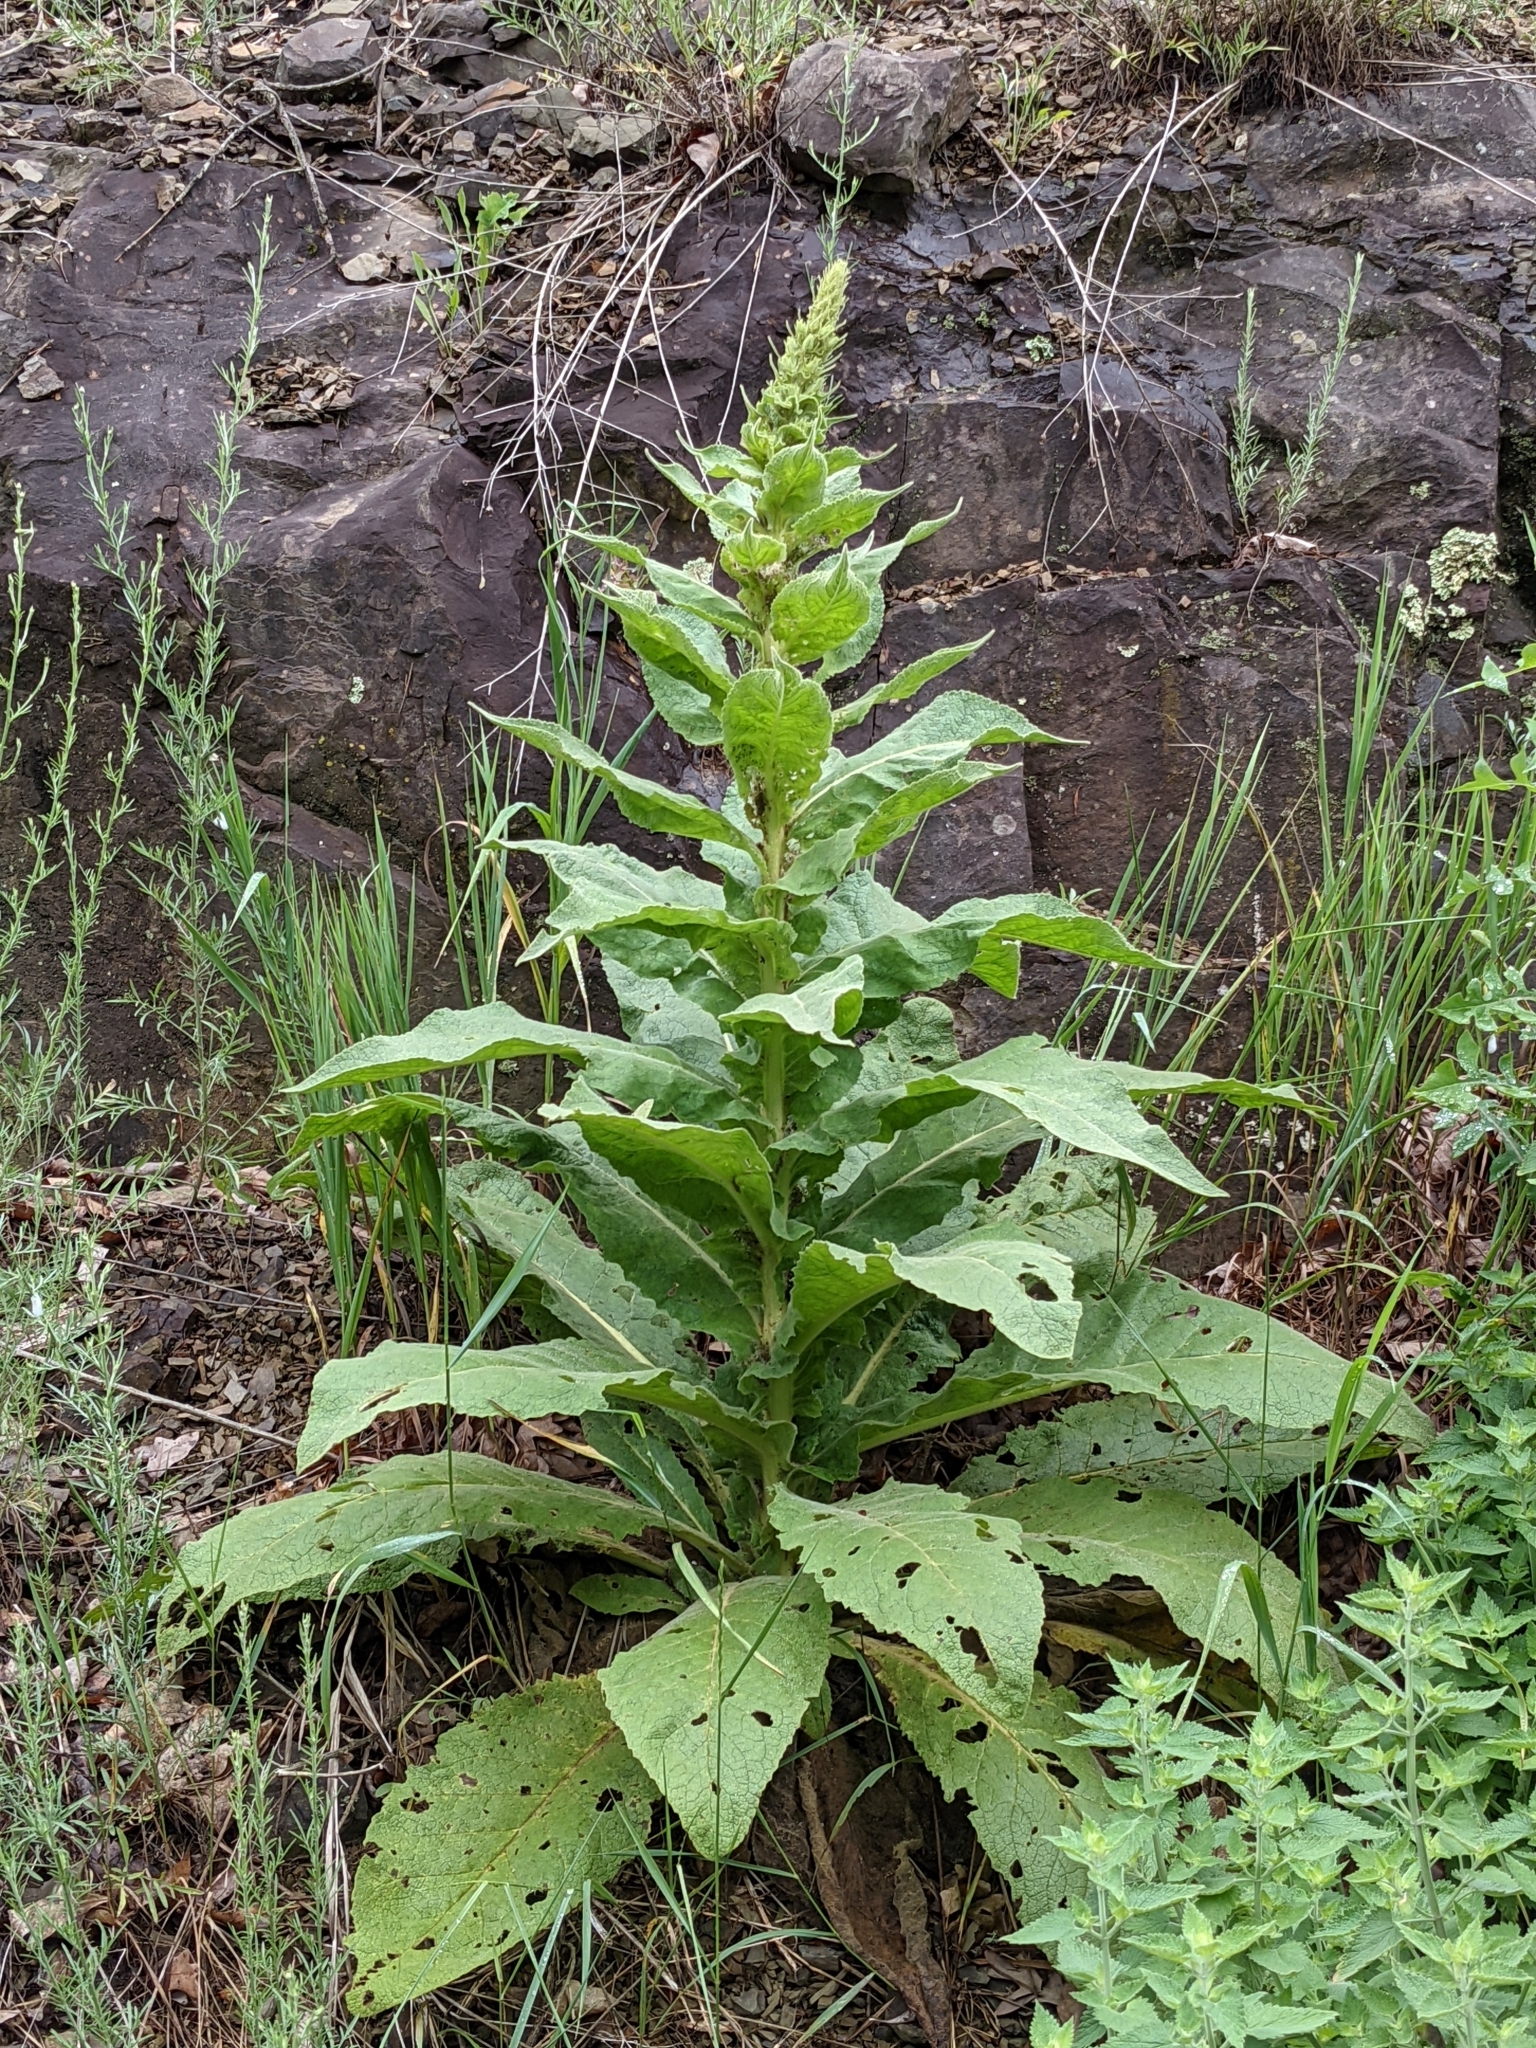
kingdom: Plantae
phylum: Tracheophyta
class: Magnoliopsida
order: Lamiales
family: Scrophulariaceae
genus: Verbascum
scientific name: Verbascum thapsus
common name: Common mullein
